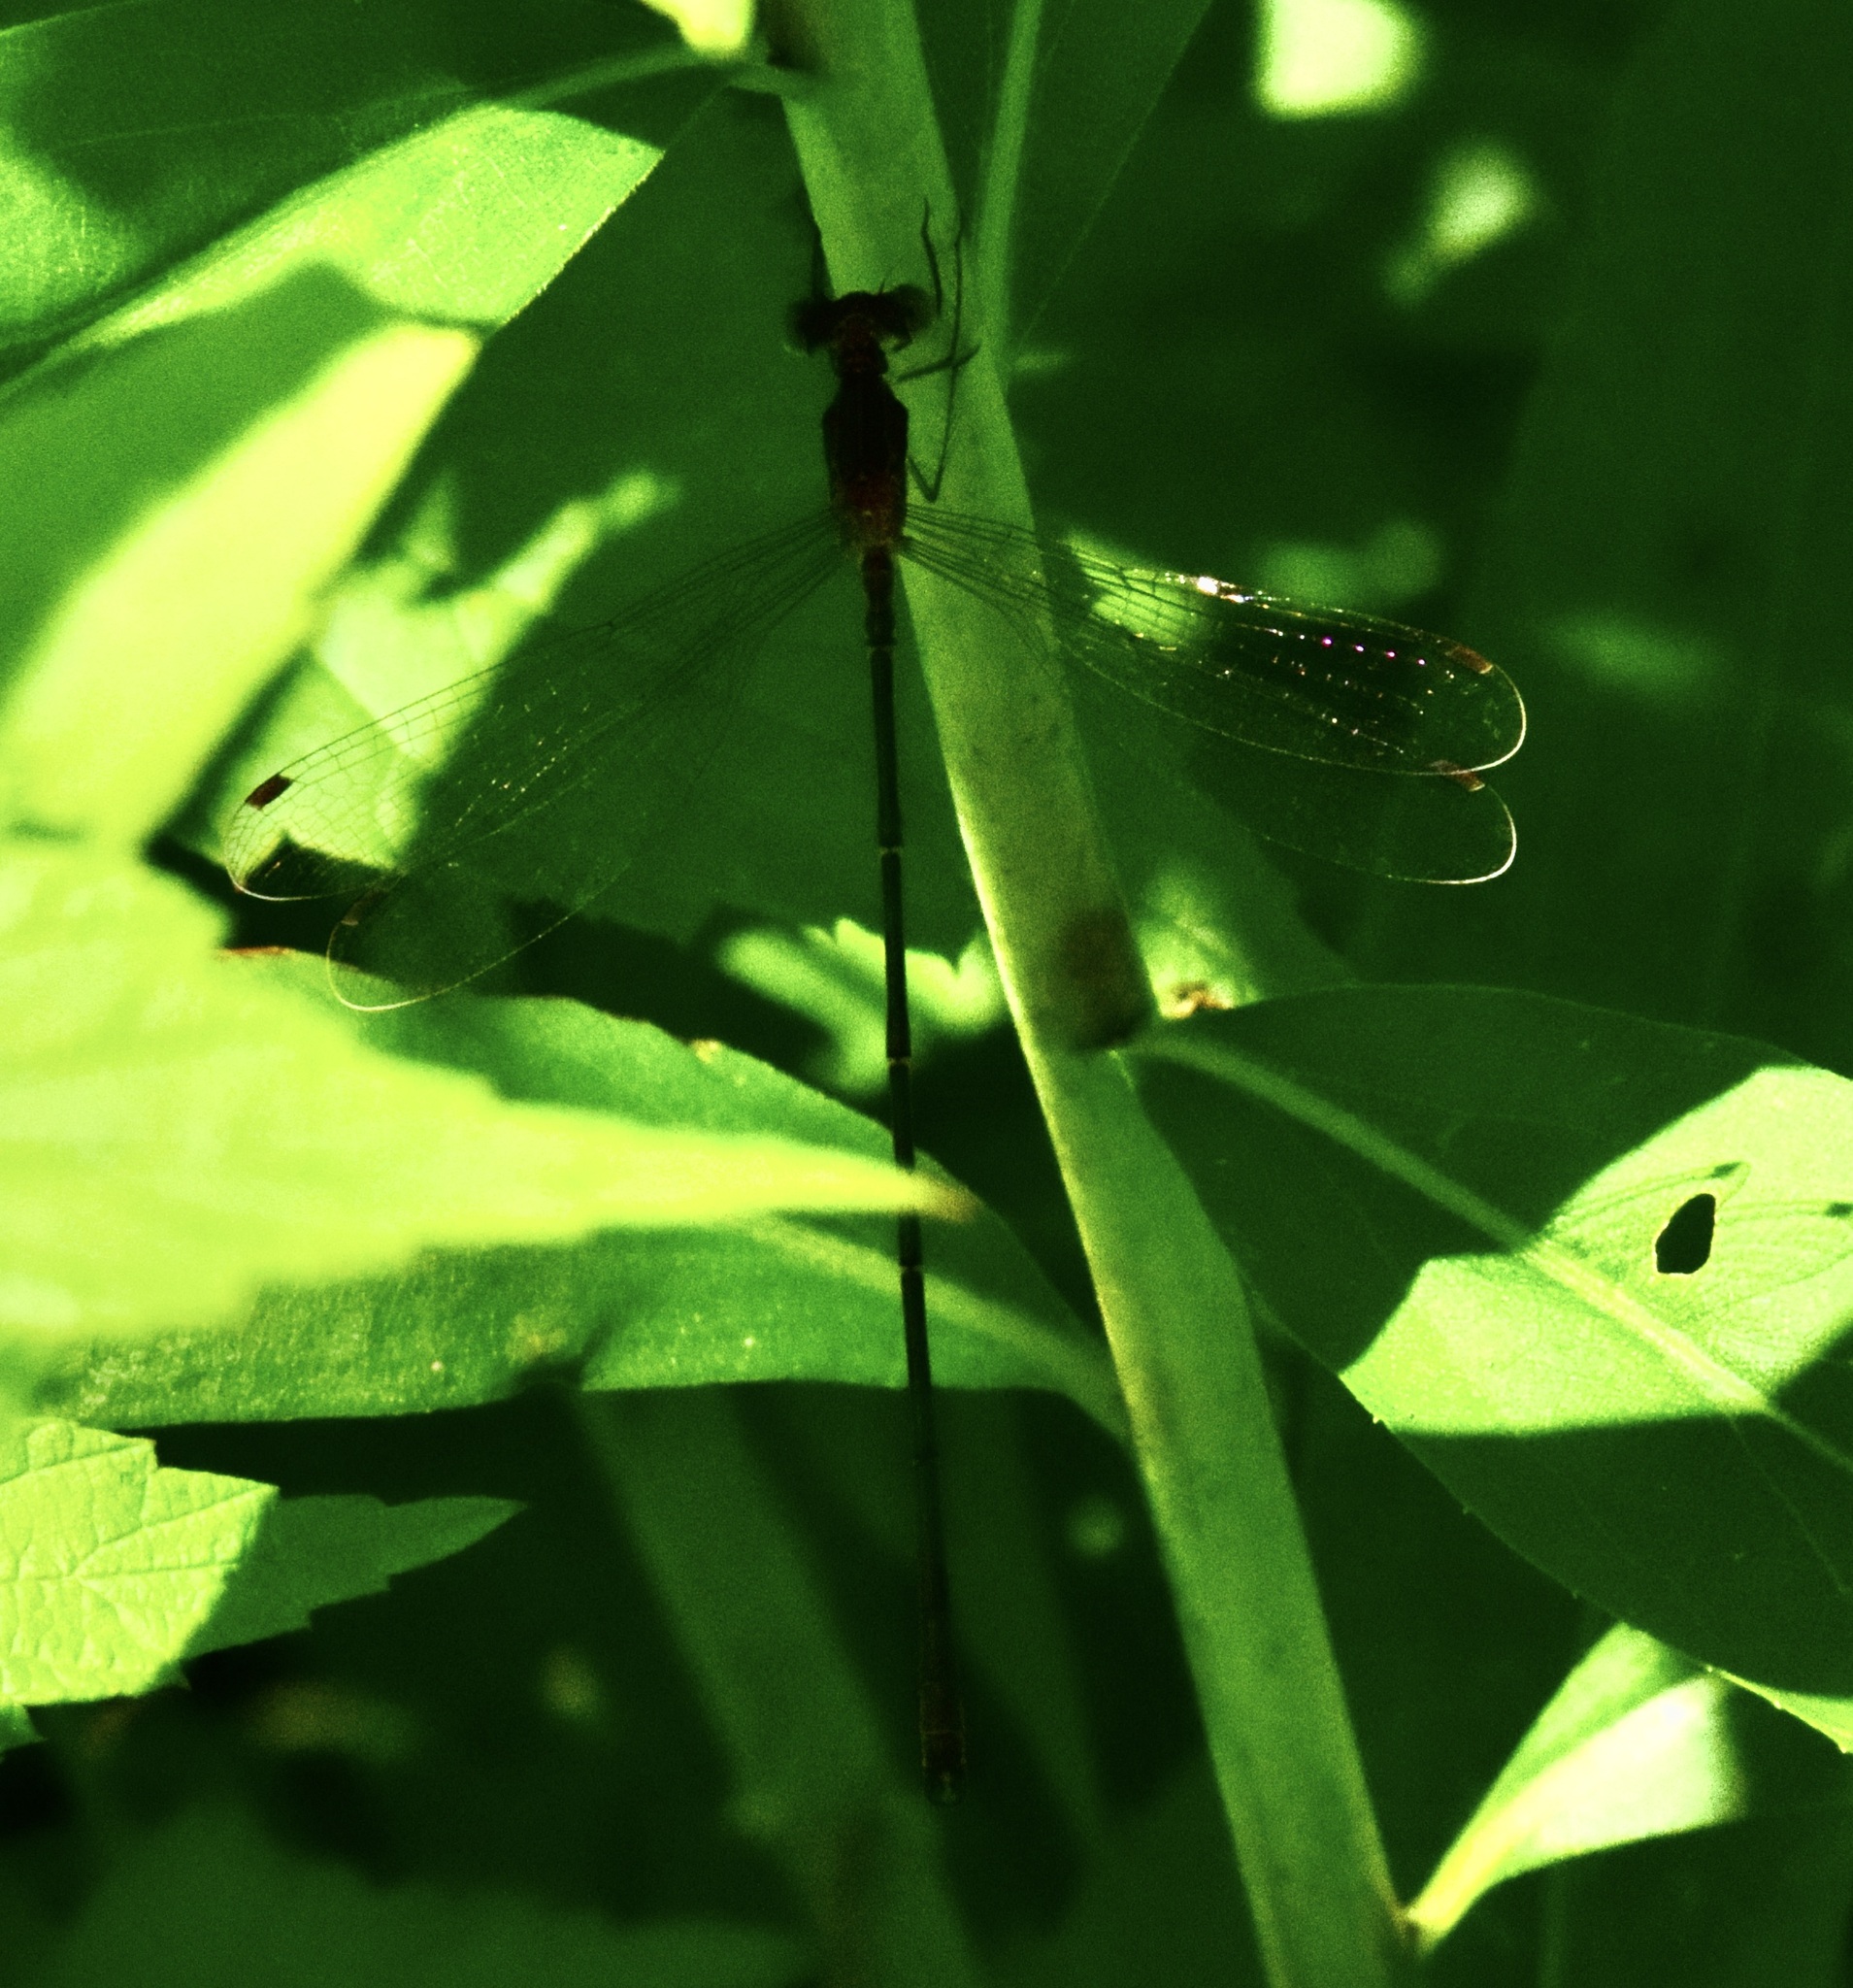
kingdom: Animalia
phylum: Arthropoda
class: Insecta
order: Odonata
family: Lestidae
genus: Lestes
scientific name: Lestes rectangularis
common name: Slender spreadwing
